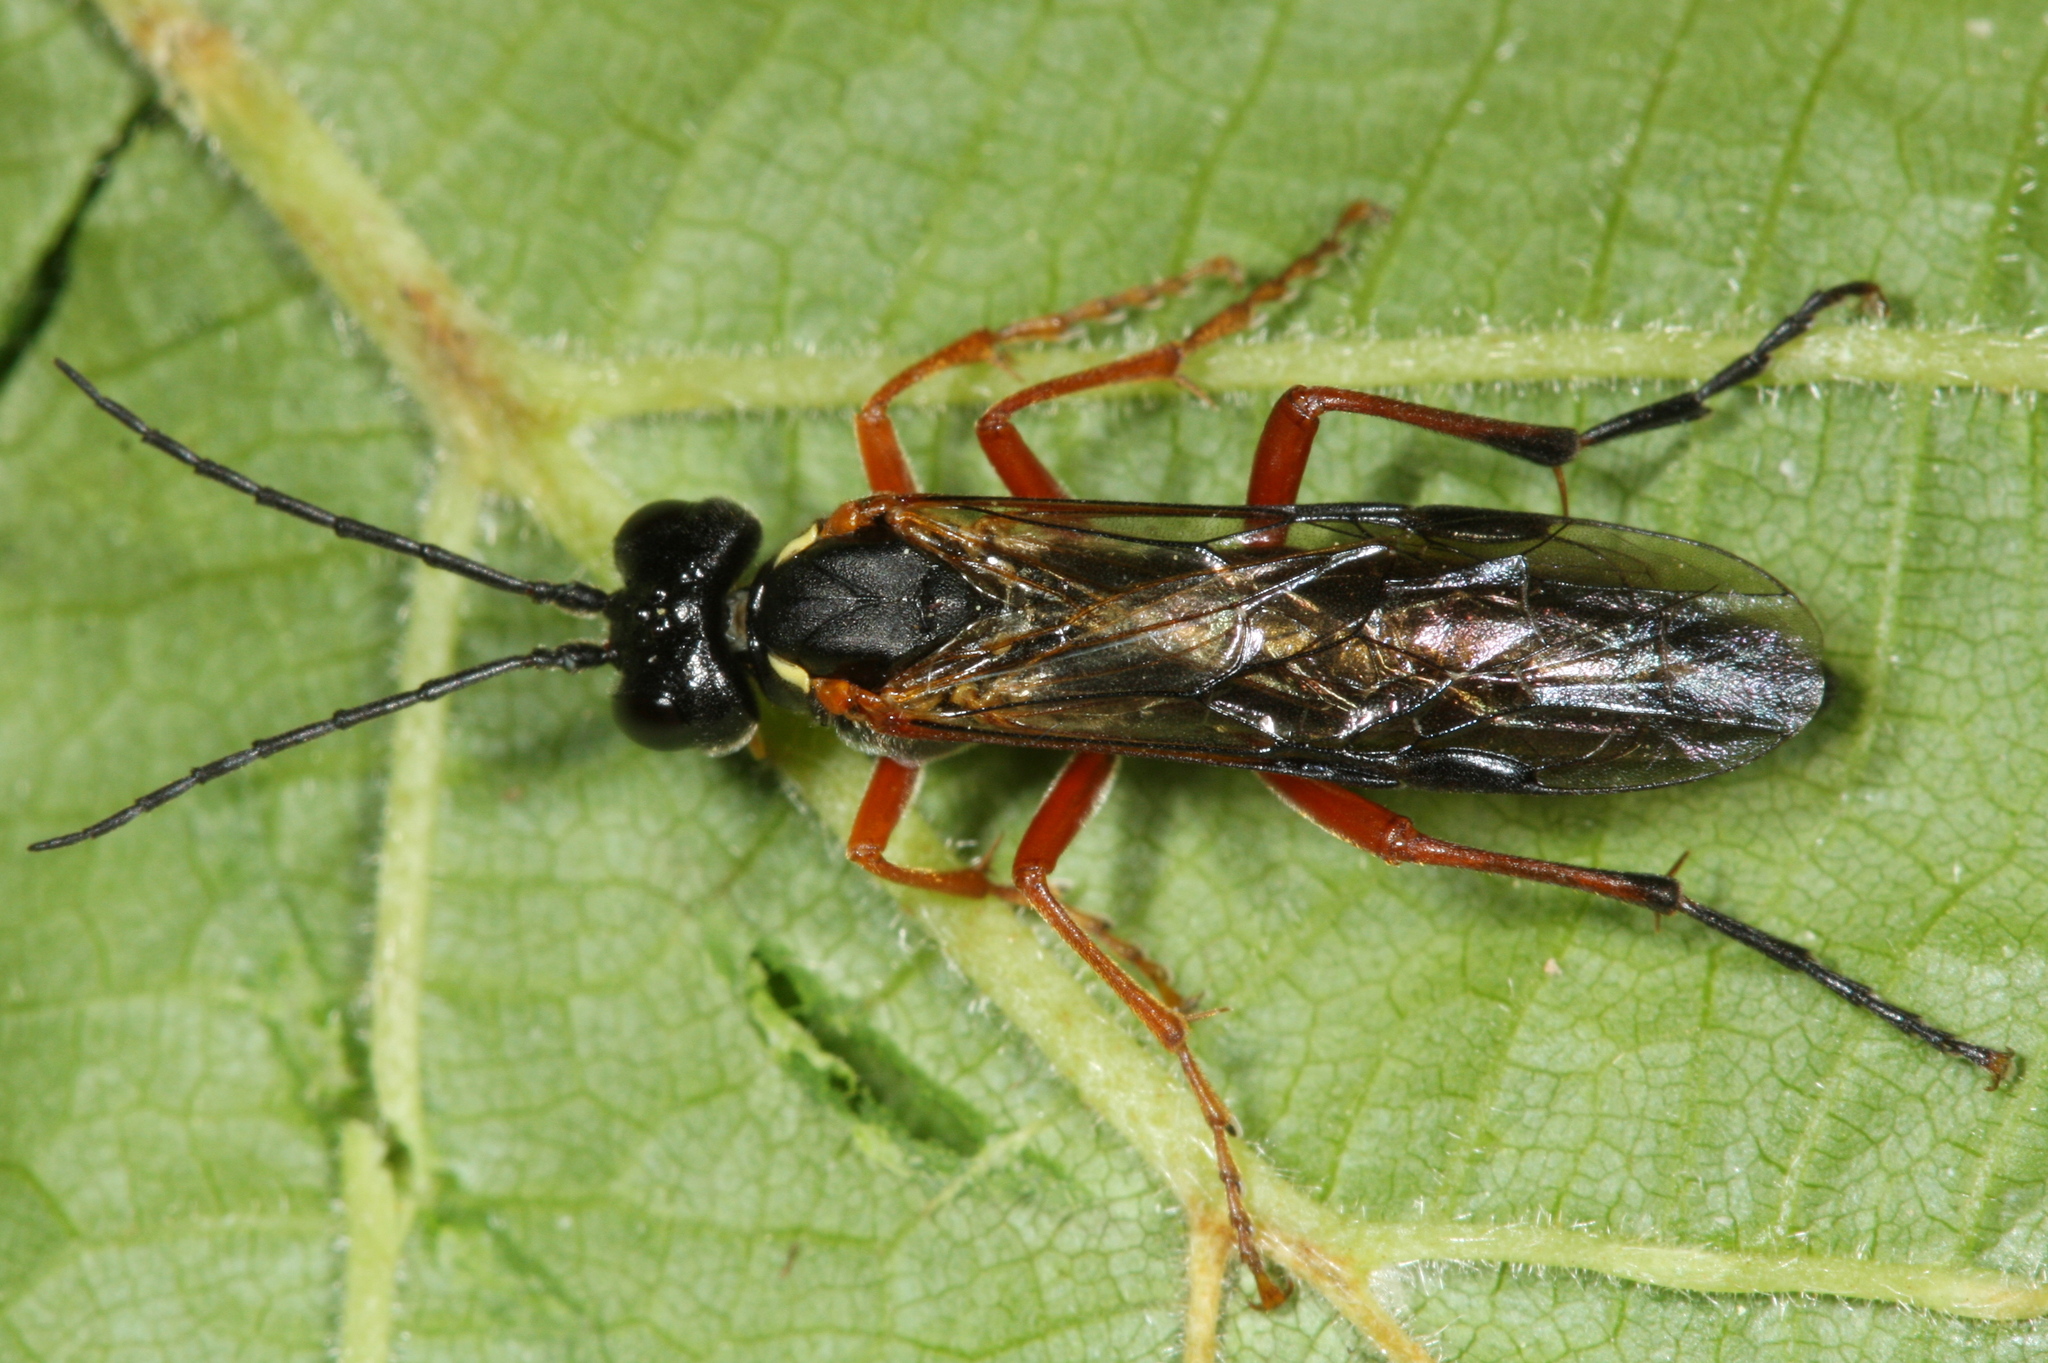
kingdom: Animalia
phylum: Arthropoda
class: Insecta
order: Hymenoptera
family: Tenthredinidae
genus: Tenthredo
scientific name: Tenthredo atra
